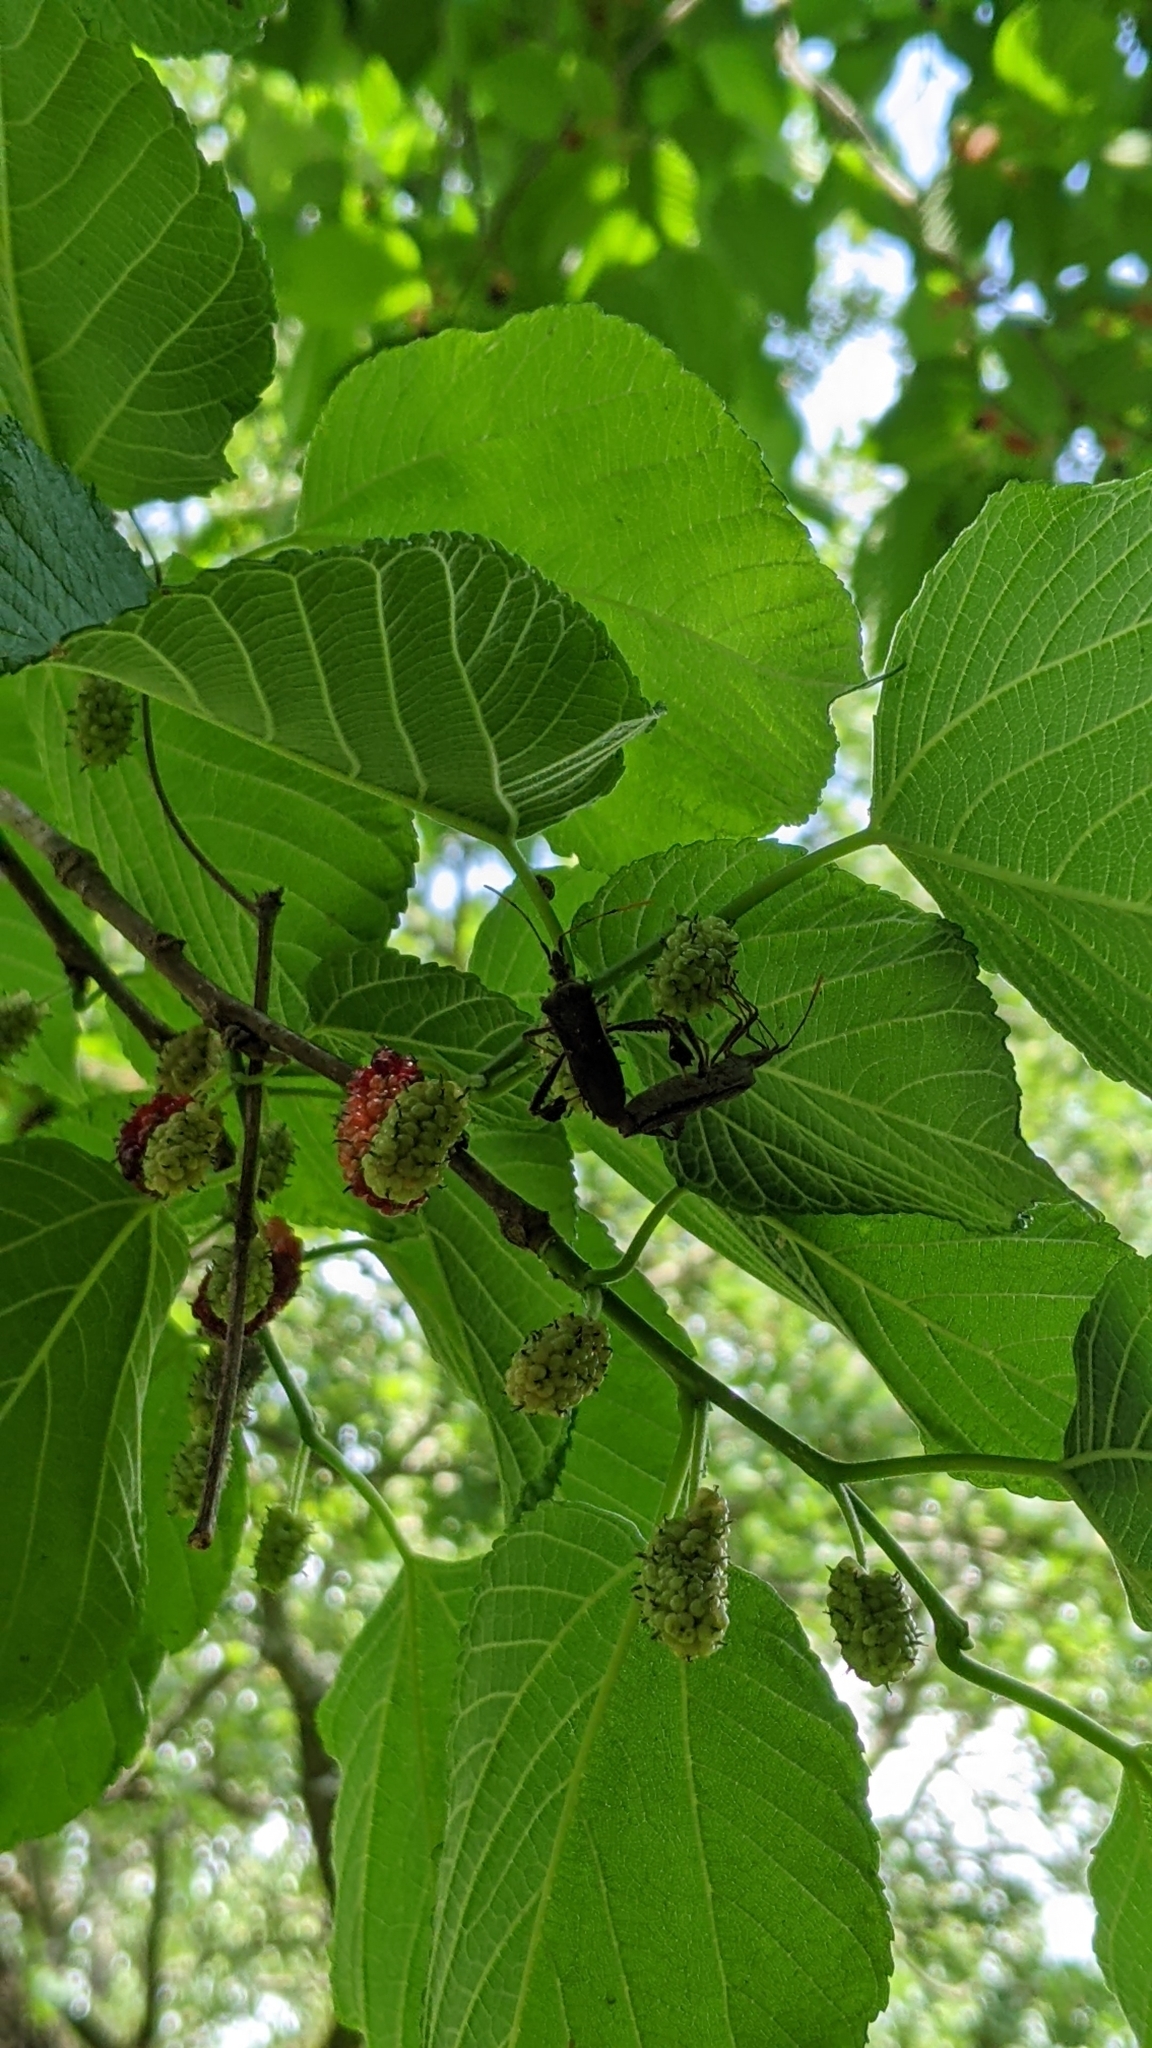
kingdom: Animalia
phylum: Arthropoda
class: Insecta
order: Hemiptera
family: Coreidae
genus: Leptoglossus
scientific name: Leptoglossus oppositus
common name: Northern leaf-footed bug
